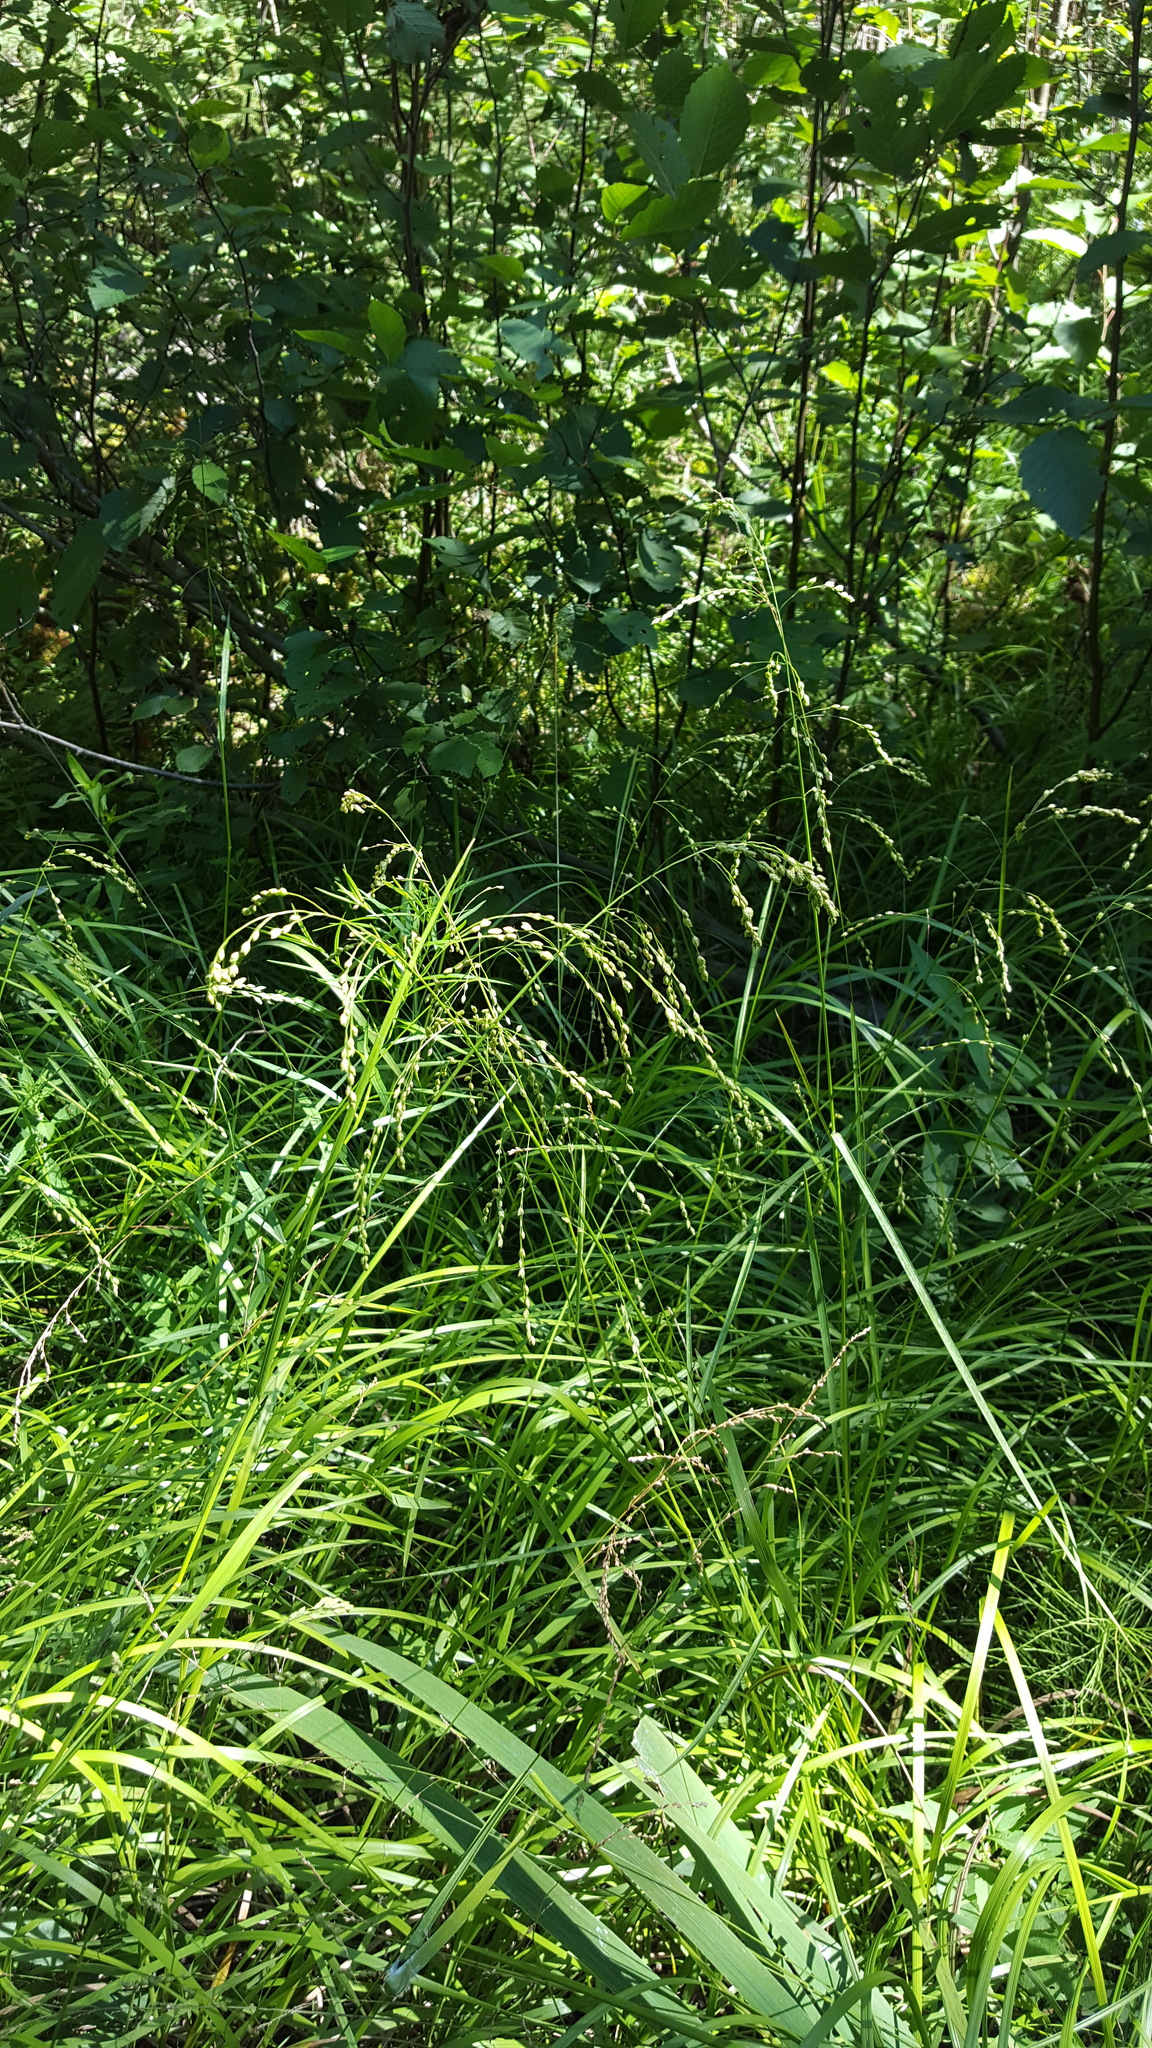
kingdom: Plantae
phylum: Tracheophyta
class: Liliopsida
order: Poales
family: Poaceae
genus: Glyceria
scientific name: Glyceria canadensis
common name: Canada mannagrass
